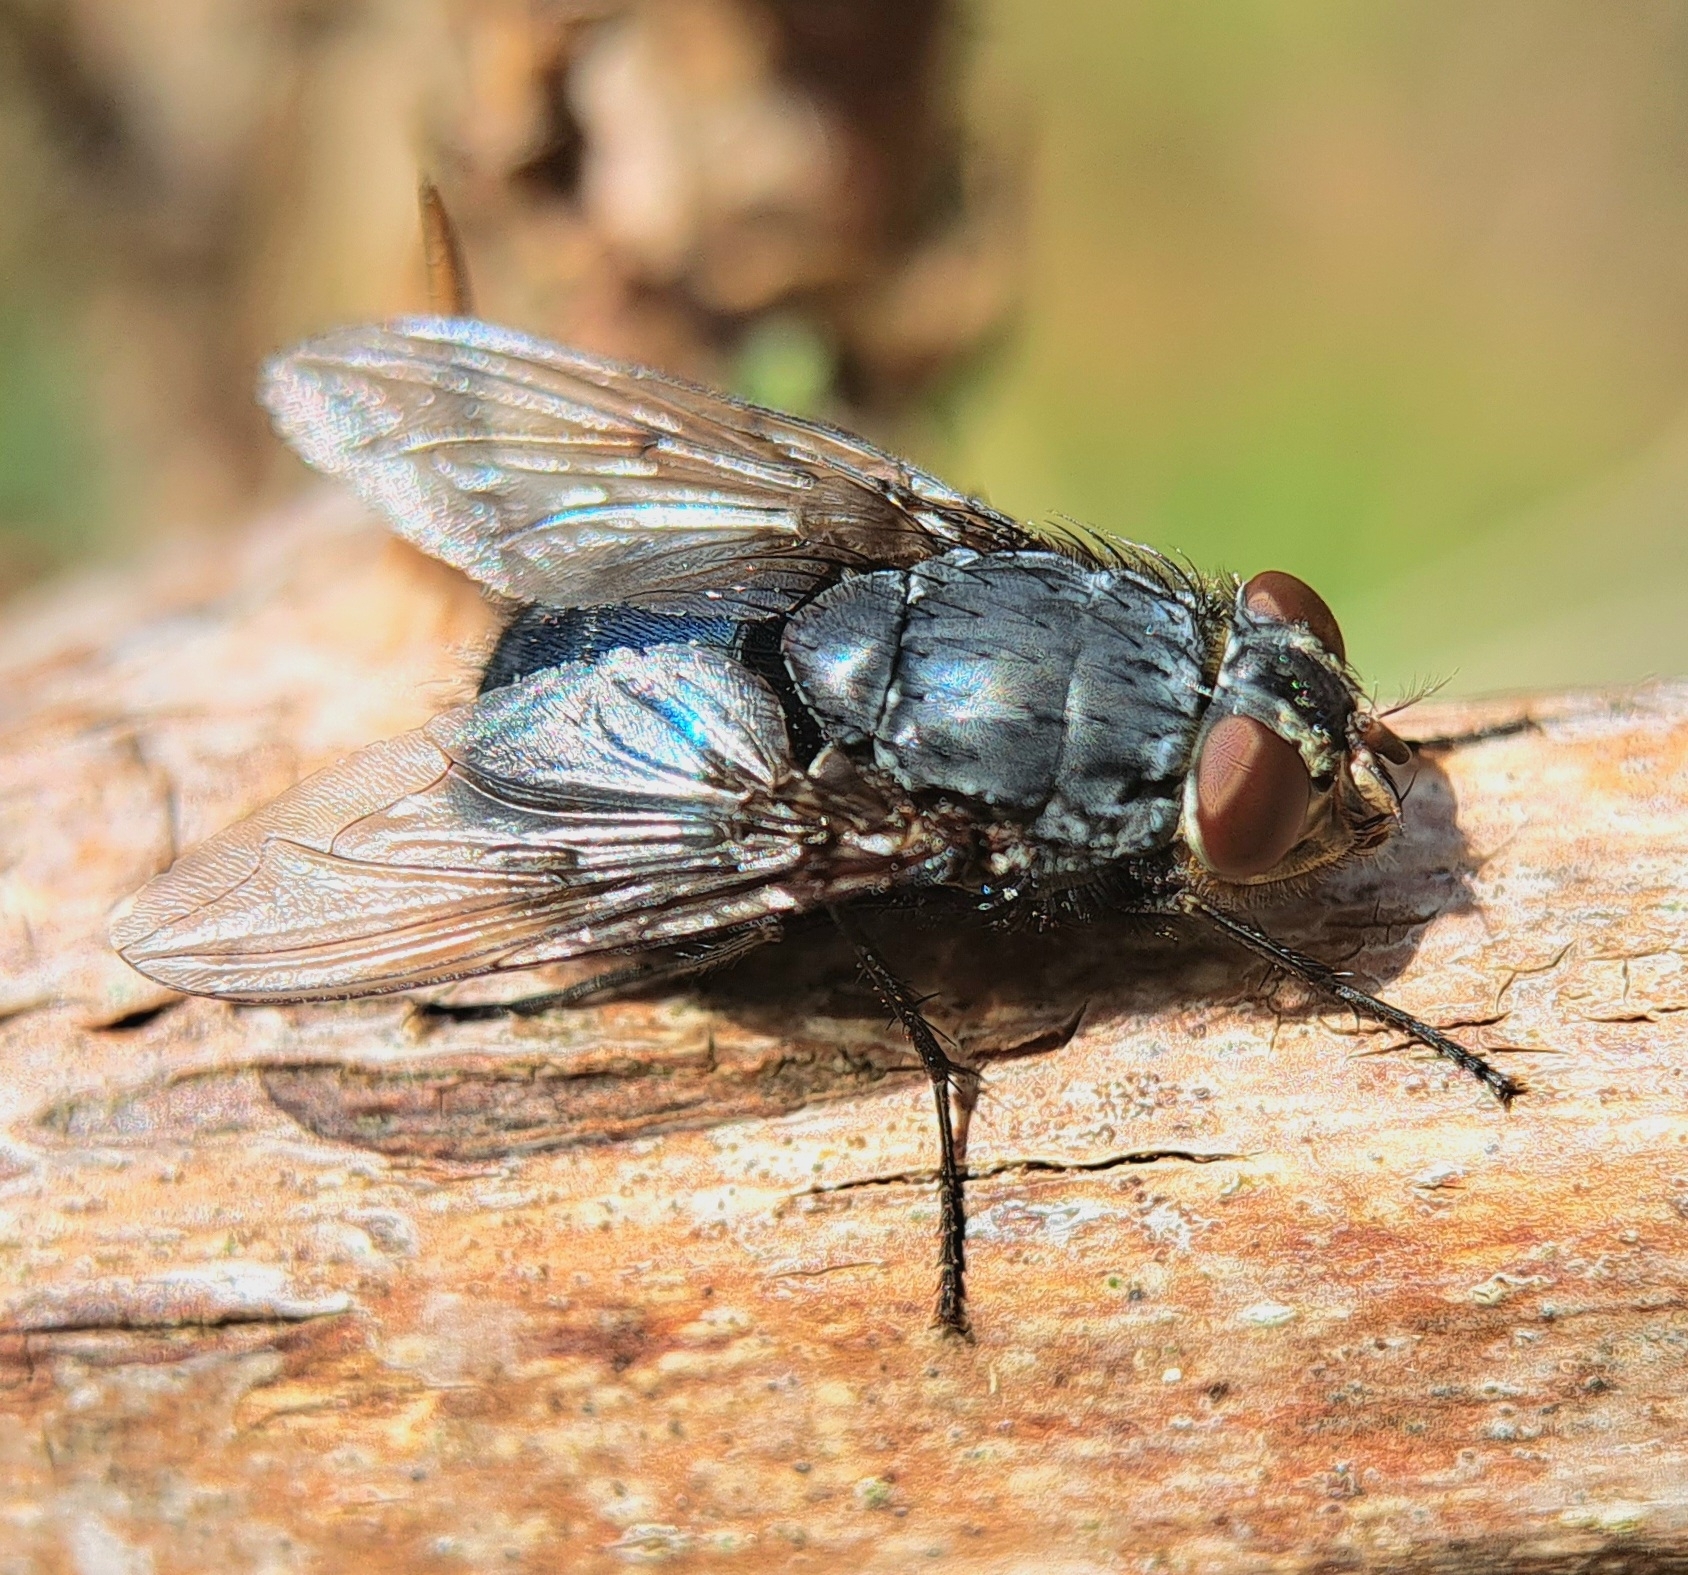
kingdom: Animalia
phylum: Arthropoda
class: Insecta
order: Diptera
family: Calliphoridae
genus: Calliphora
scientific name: Calliphora vomitoria
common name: Blue bottle fly
